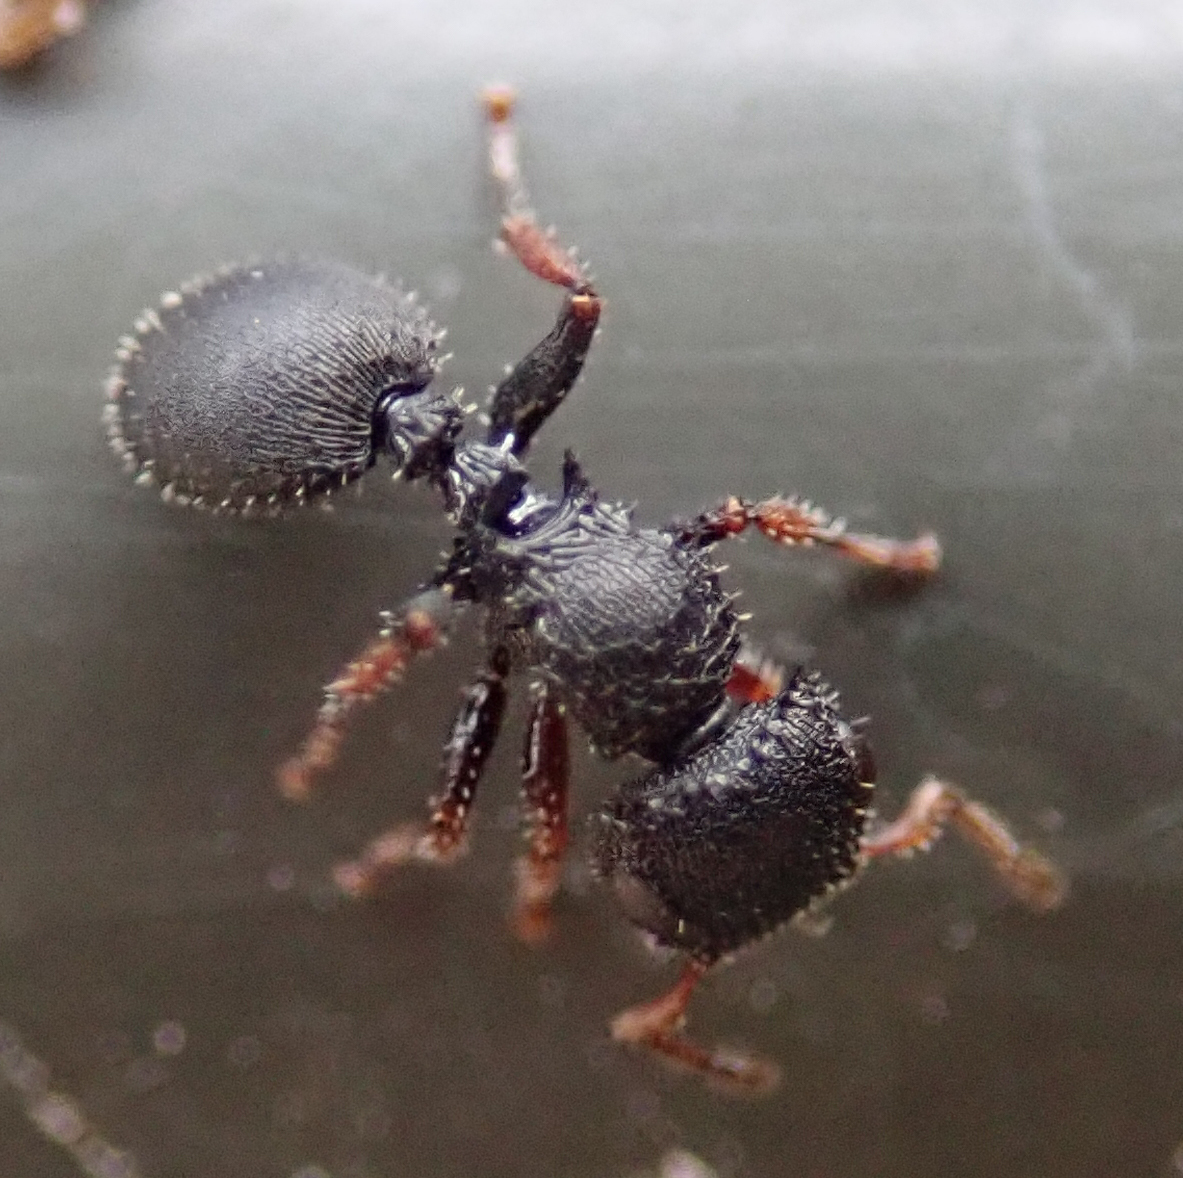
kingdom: Animalia
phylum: Arthropoda
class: Insecta
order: Hymenoptera
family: Formicidae
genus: Cataulacus
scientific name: Cataulacus intrudens
